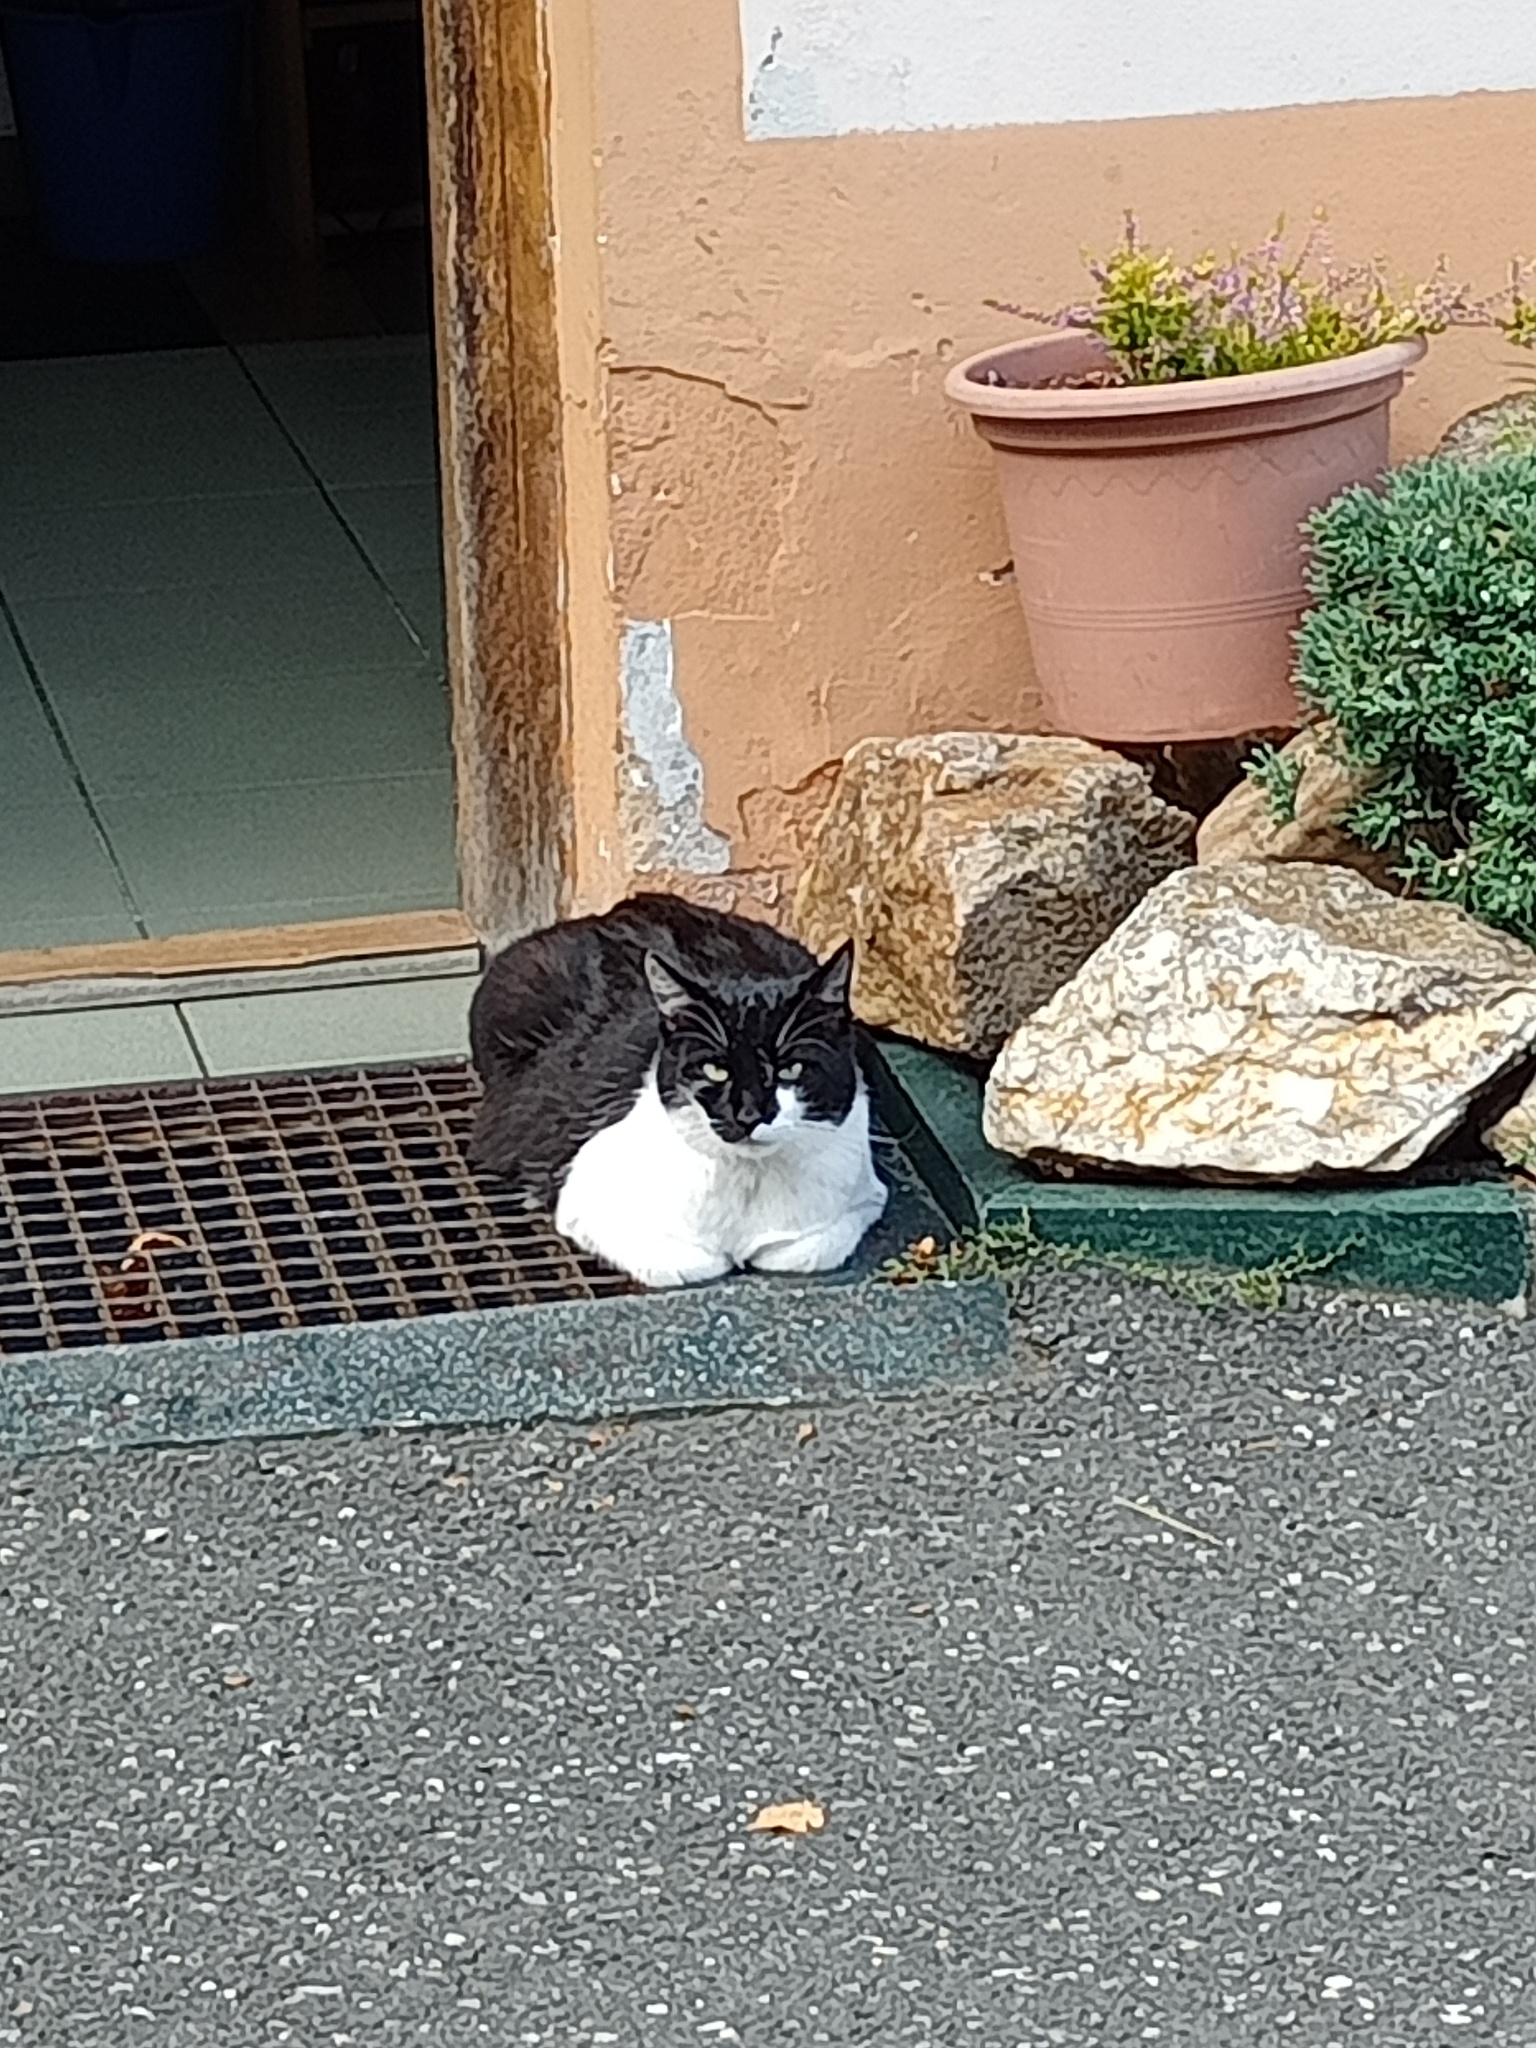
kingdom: Animalia
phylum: Chordata
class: Mammalia
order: Carnivora
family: Felidae
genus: Felis
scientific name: Felis catus
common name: Domestic cat
